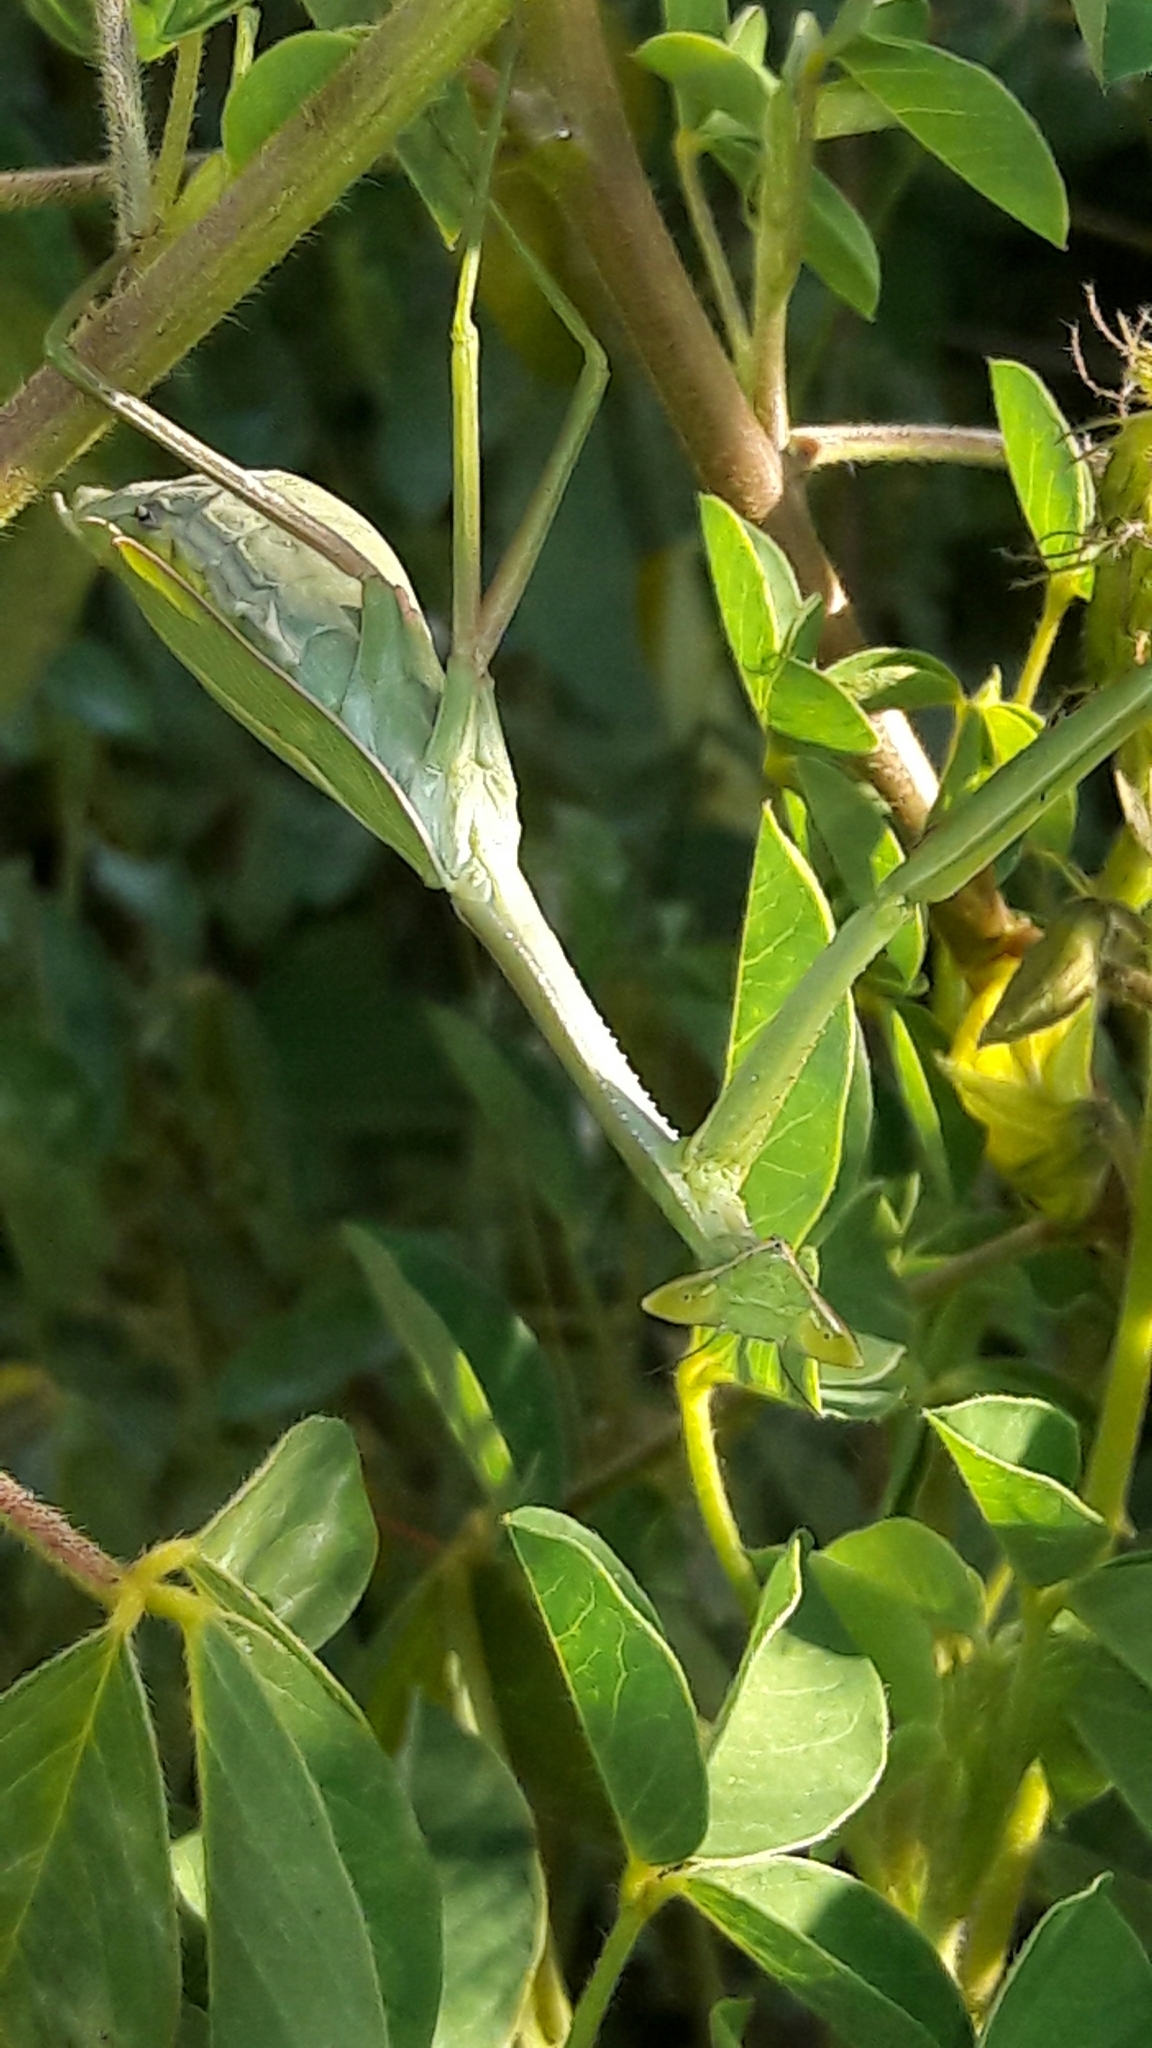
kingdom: Animalia
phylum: Arthropoda
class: Insecta
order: Mantodea
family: Mantidae
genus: Oxyopsis
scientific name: Oxyopsis
